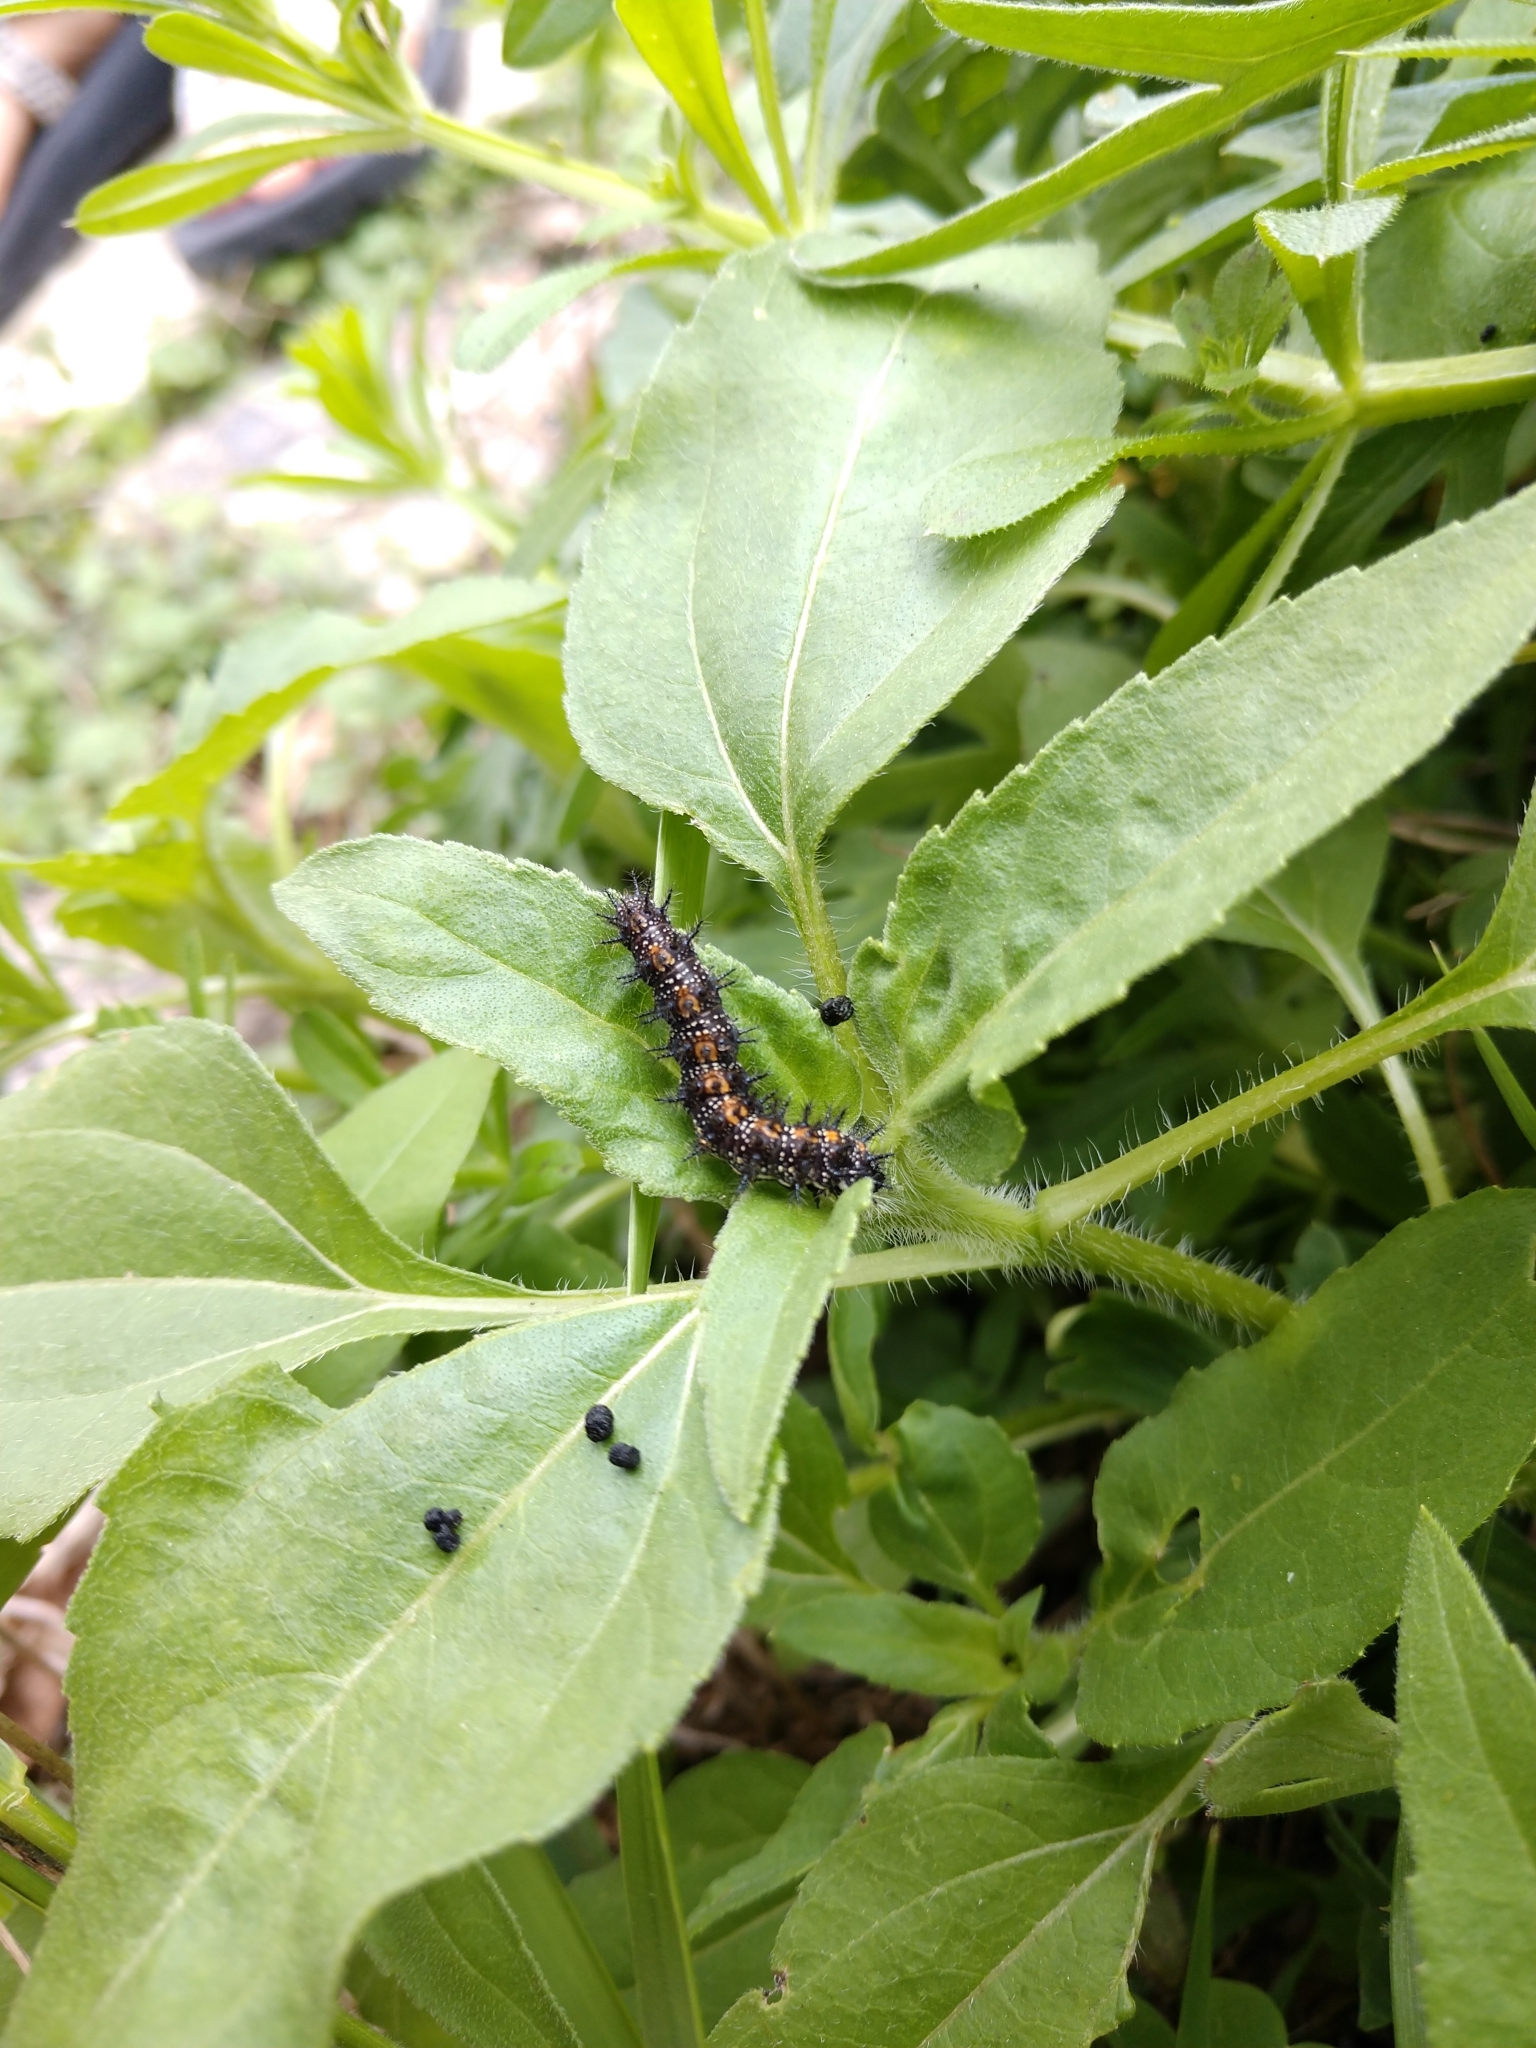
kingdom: Animalia
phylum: Arthropoda
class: Insecta
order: Lepidoptera
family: Nymphalidae
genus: Chlosyne
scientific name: Chlosyne lacinia
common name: Bordered patch
